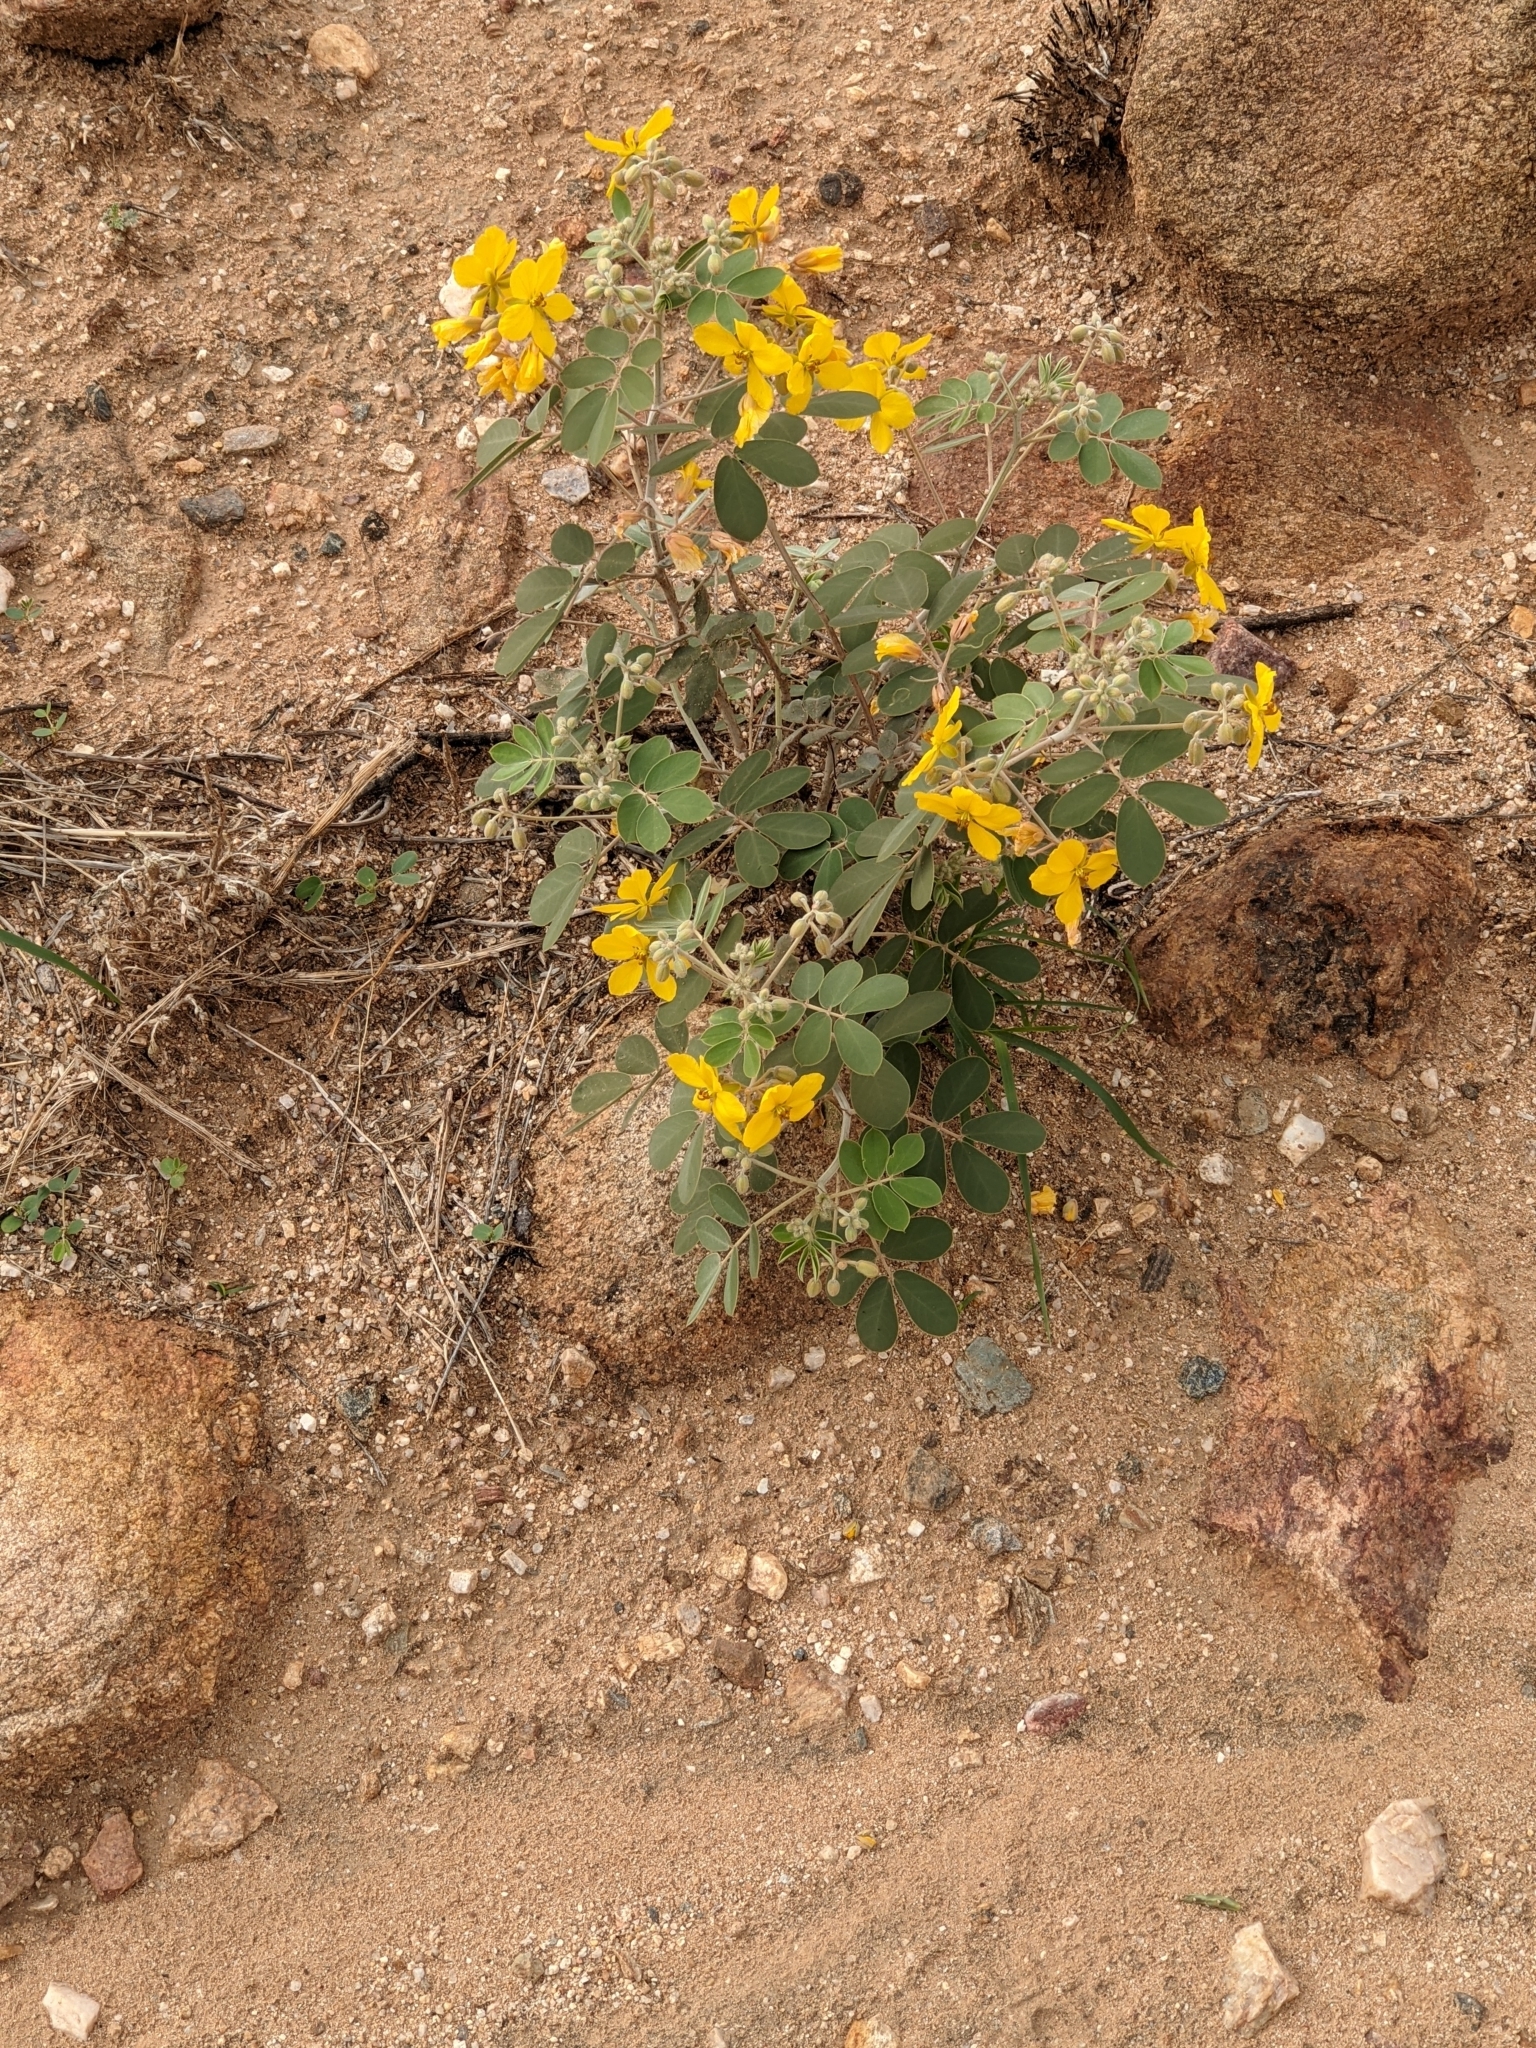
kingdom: Plantae
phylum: Tracheophyta
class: Magnoliopsida
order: Fabales
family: Fabaceae
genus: Senna
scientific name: Senna covesii
